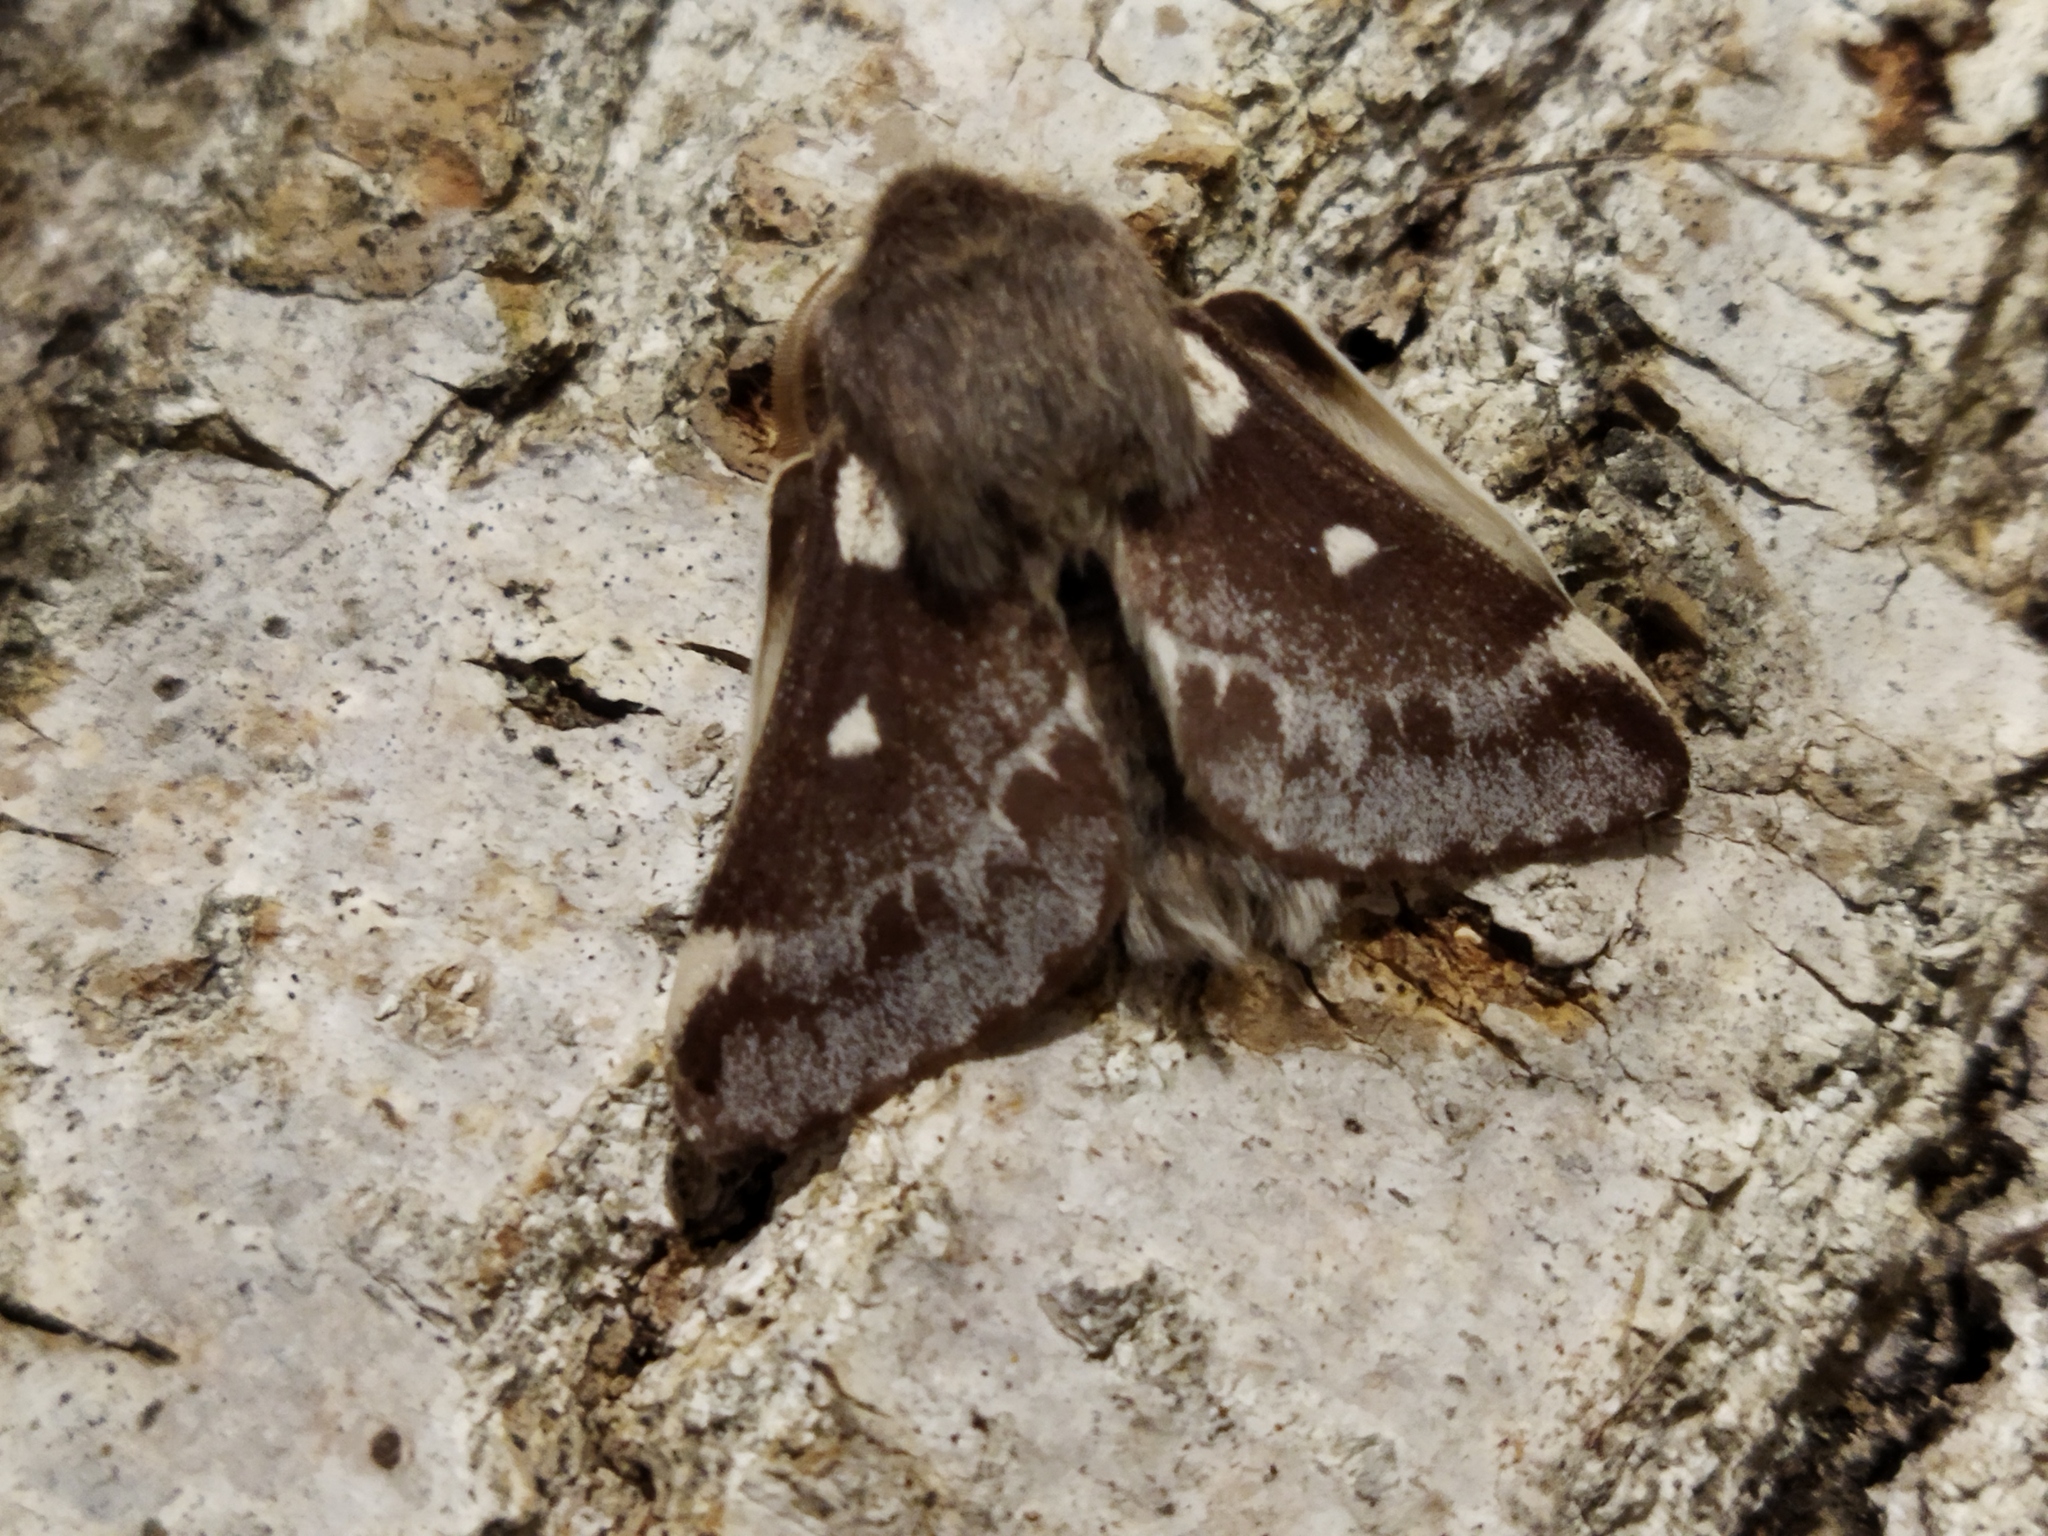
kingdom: Animalia
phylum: Arthropoda
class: Insecta
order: Lepidoptera
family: Lasiocampidae
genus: Eriogaster
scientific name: Eriogaster lanestris
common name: Small eggar
